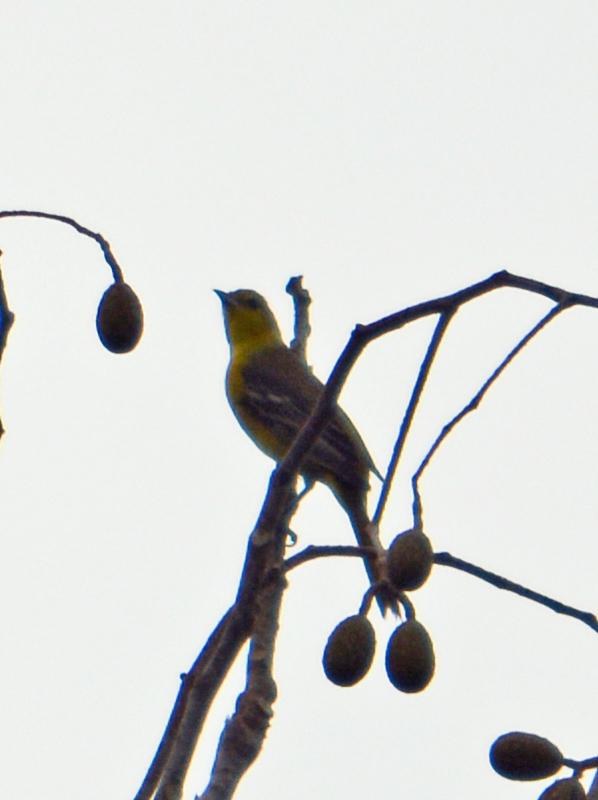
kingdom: Animalia
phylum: Chordata
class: Aves
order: Passeriformes
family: Icteridae
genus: Icterus
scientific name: Icterus spurius
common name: Orchard oriole
